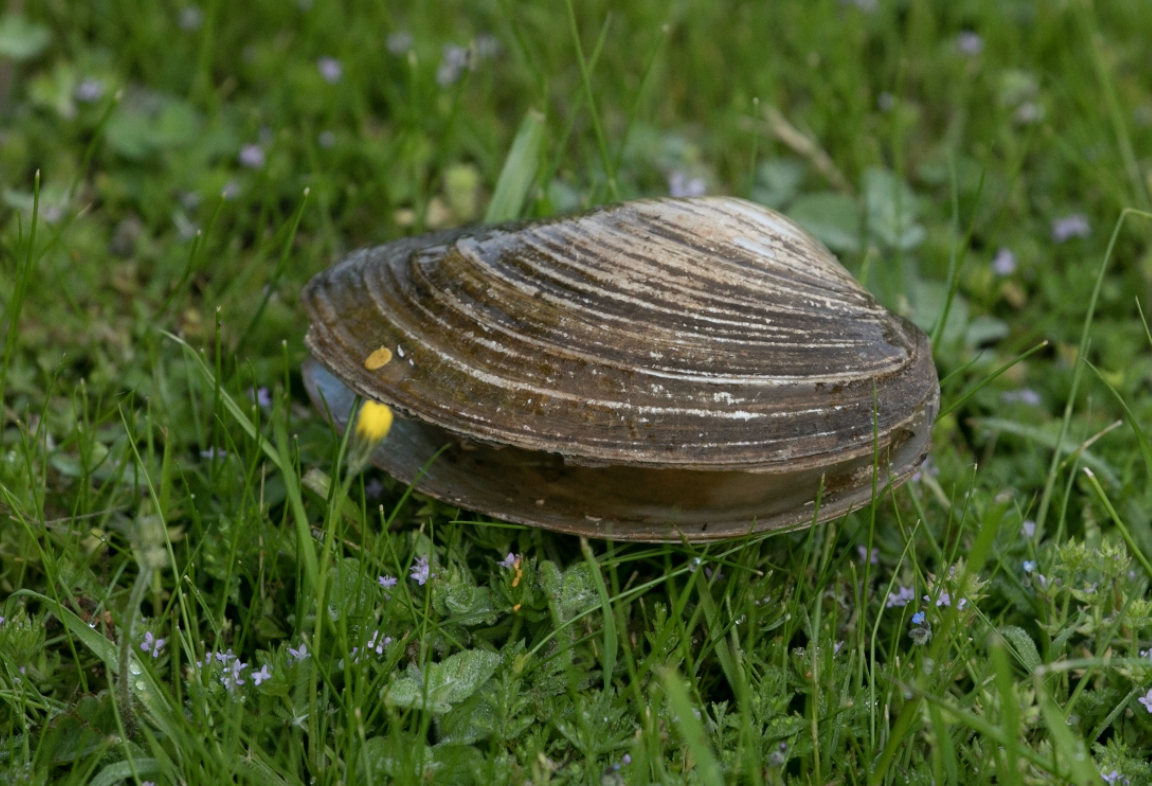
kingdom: Animalia
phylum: Mollusca
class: Bivalvia
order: Unionida
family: Unionidae
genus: Sinanodonta
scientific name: Sinanodonta woodiana
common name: Chinese pond mussel
